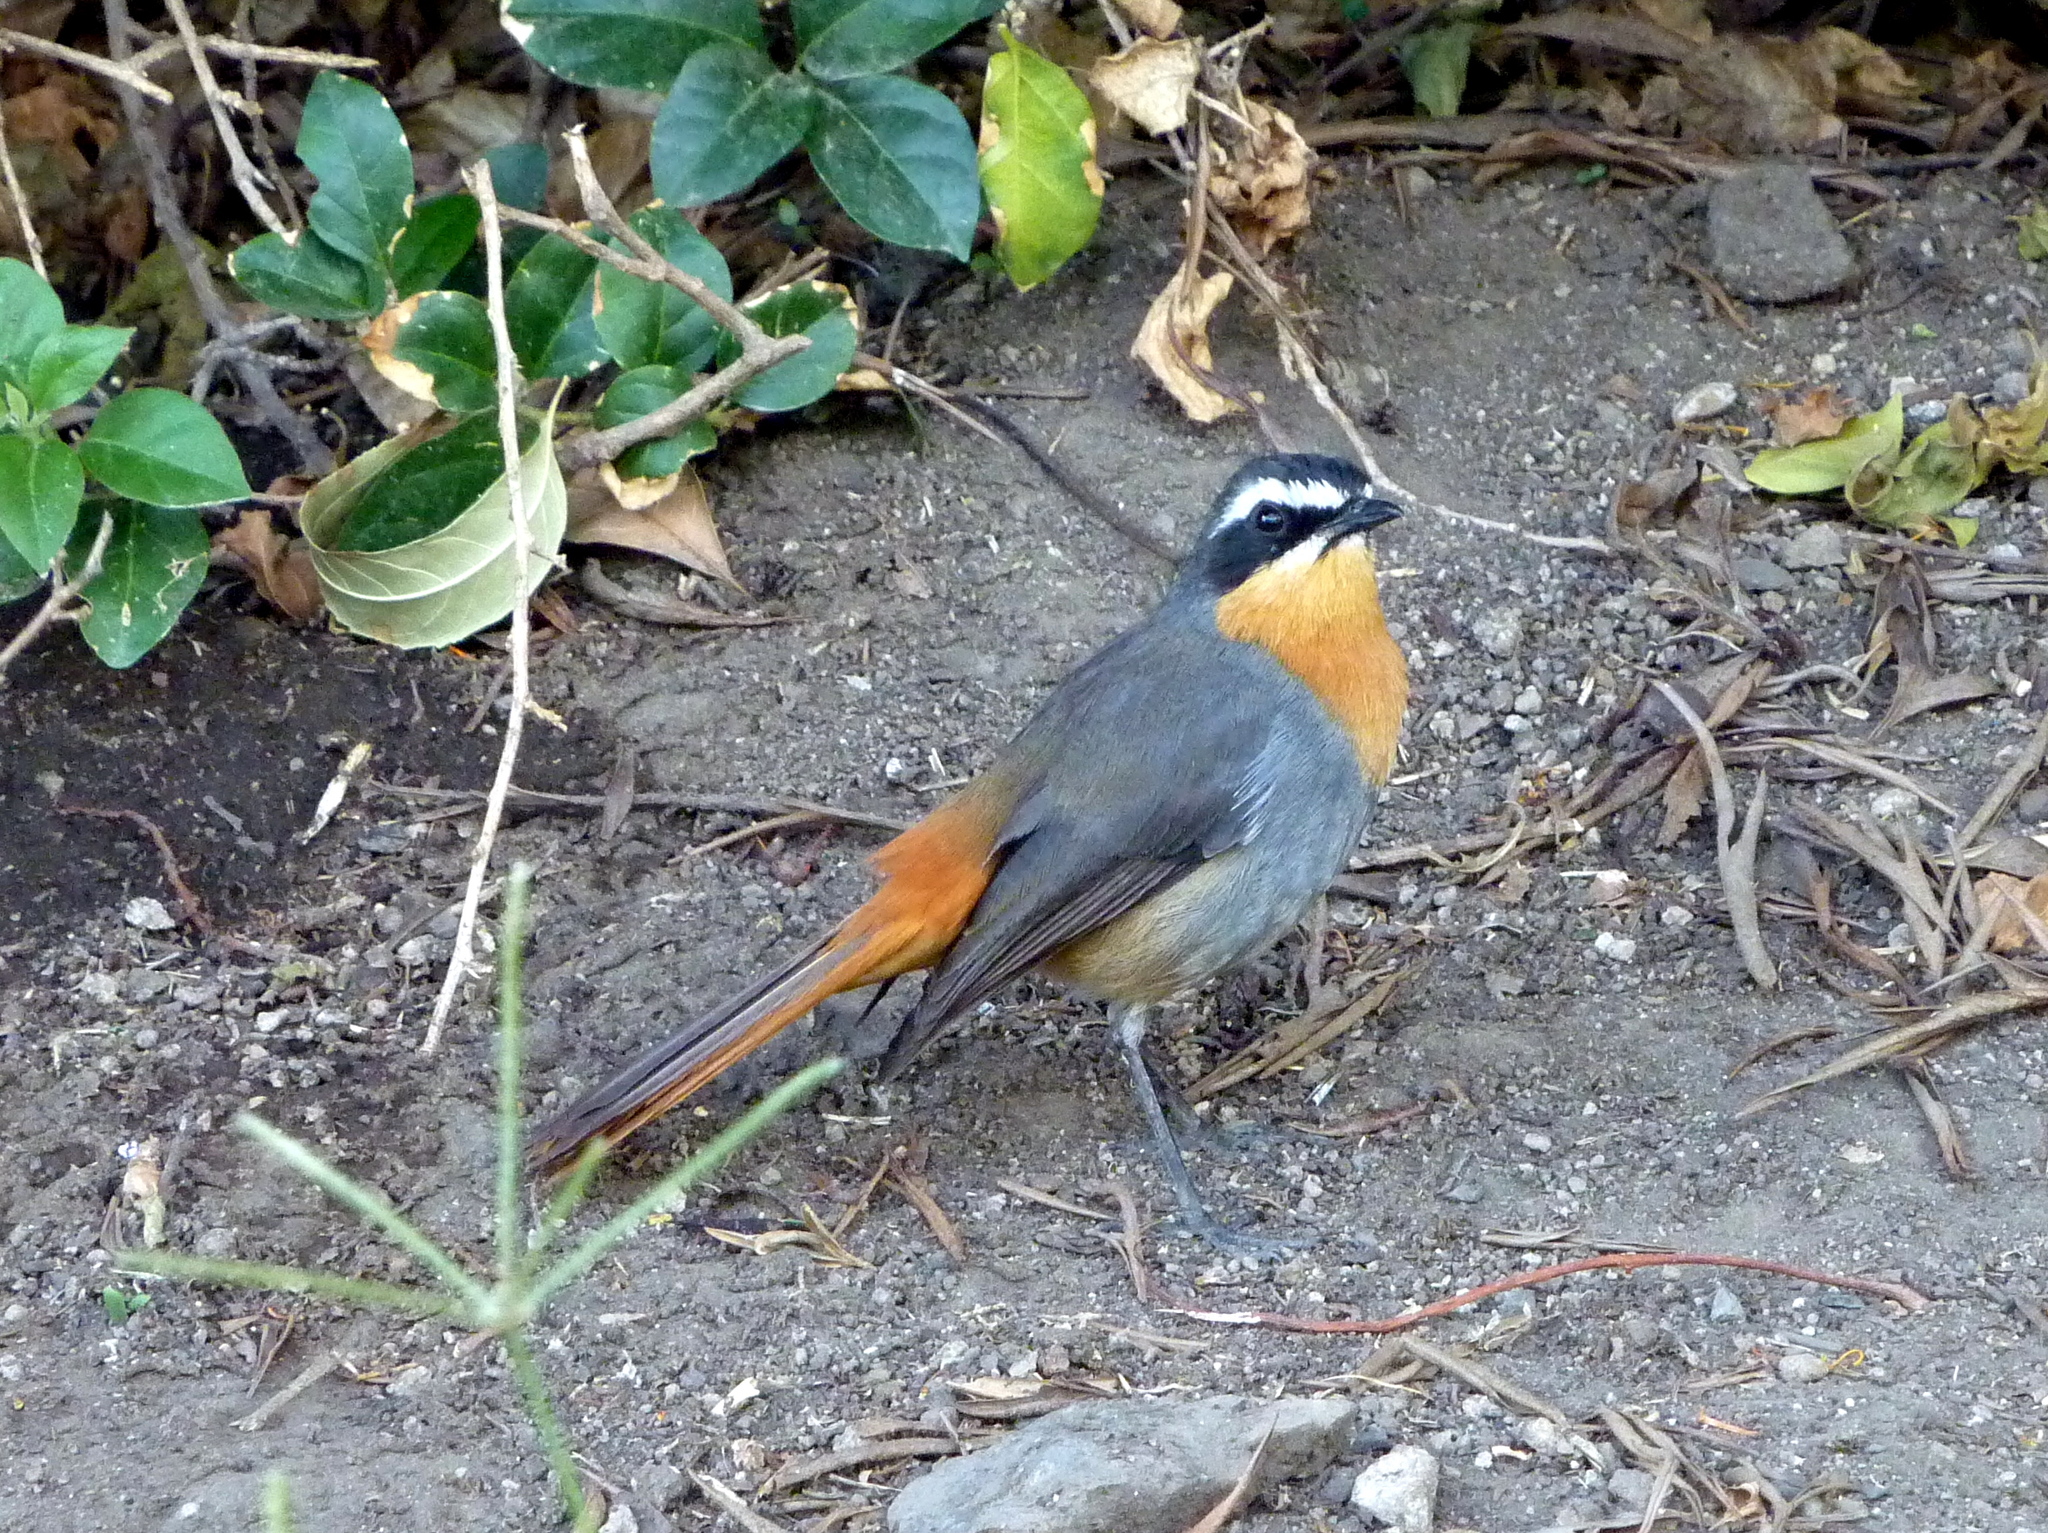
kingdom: Animalia
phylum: Chordata
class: Aves
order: Passeriformes
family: Muscicapidae
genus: Cossypha
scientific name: Cossypha caffra
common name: Cape robin-chat
